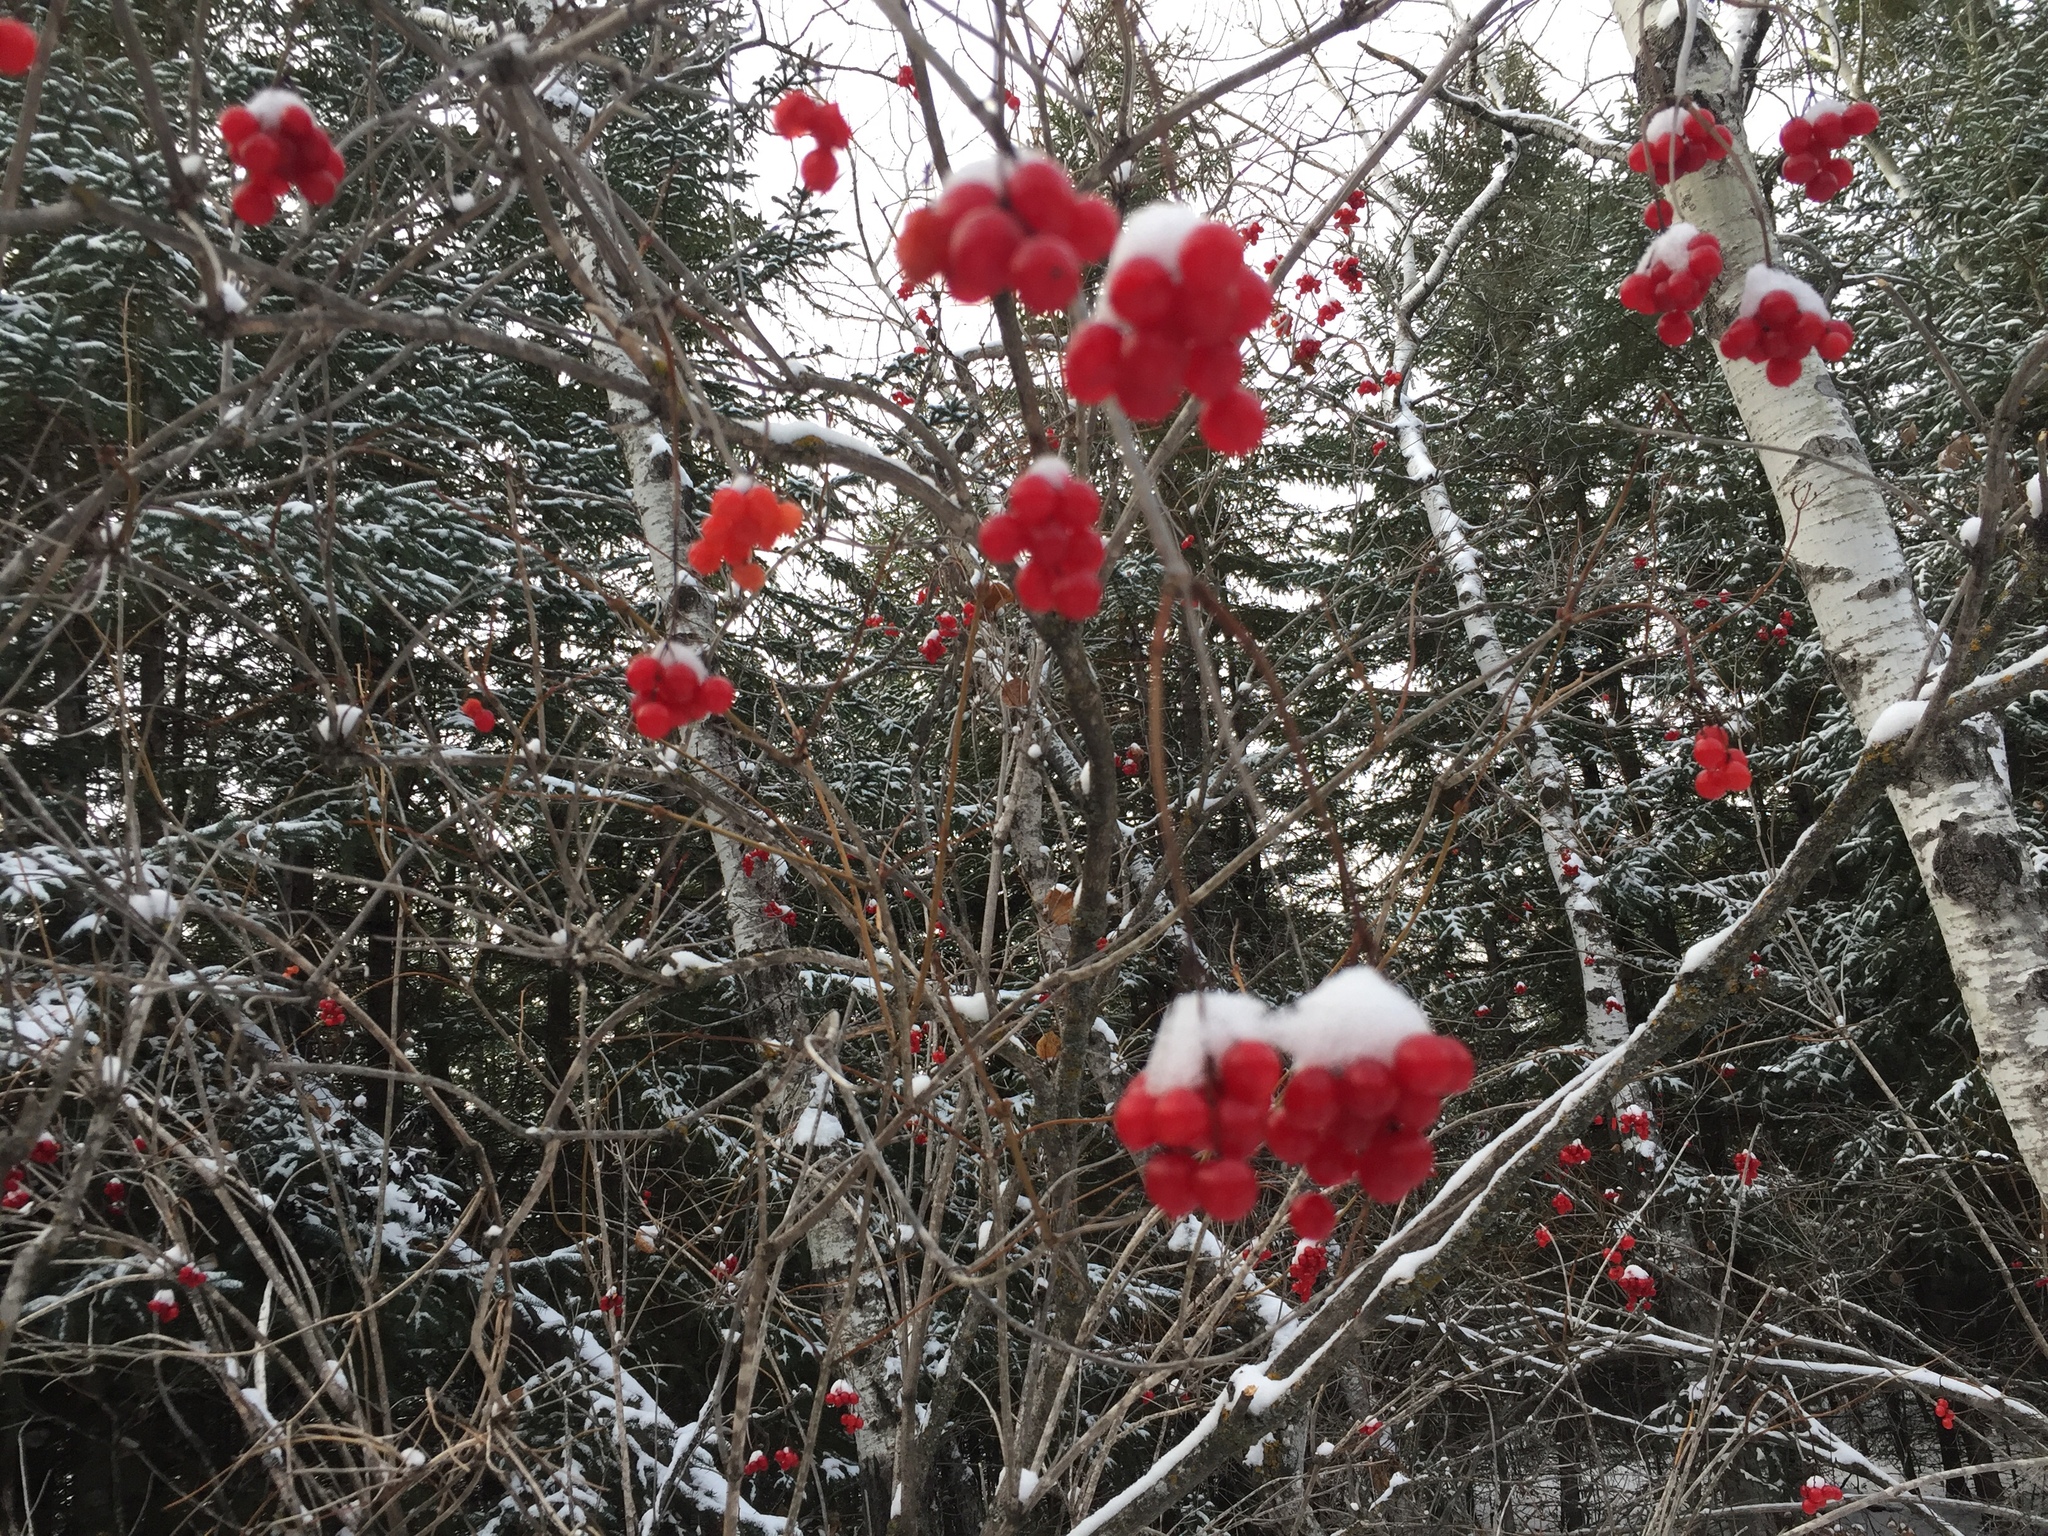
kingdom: Plantae
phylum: Tracheophyta
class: Magnoliopsida
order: Dipsacales
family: Viburnaceae
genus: Viburnum
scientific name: Viburnum trilobum
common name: American cranberrybush
